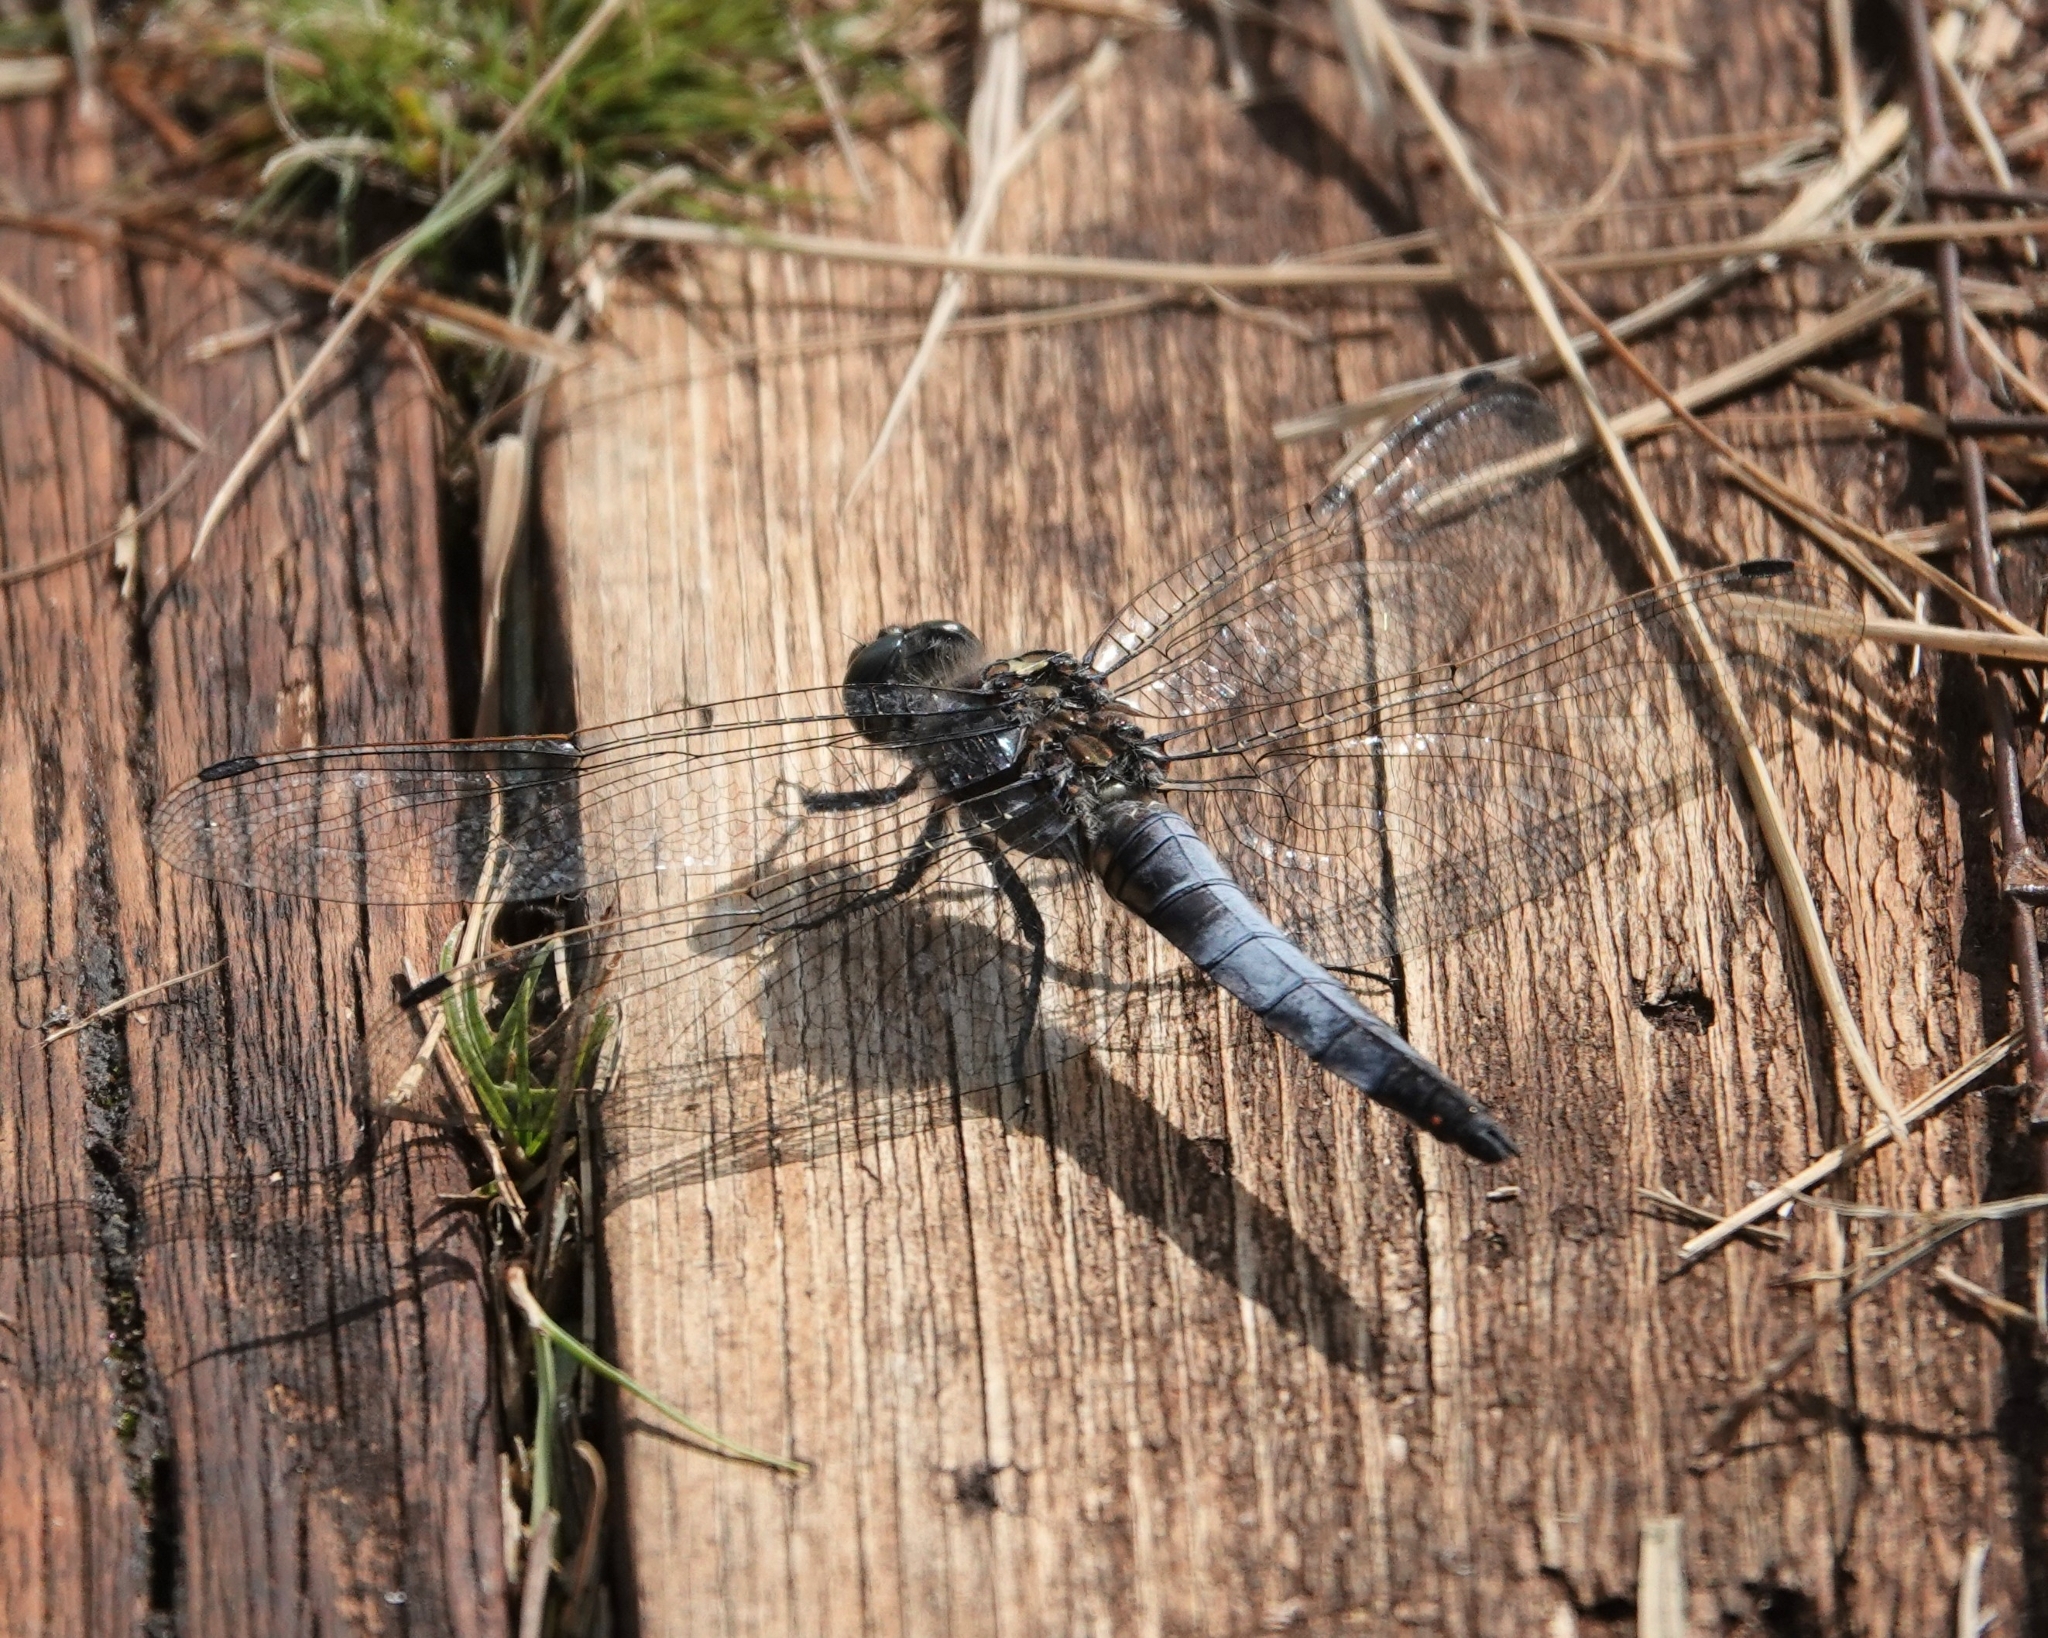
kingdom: Animalia
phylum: Arthropoda
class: Insecta
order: Odonata
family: Libellulidae
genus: Orthetrum
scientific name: Orthetrum cancellatum
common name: Black-tailed skimmer
